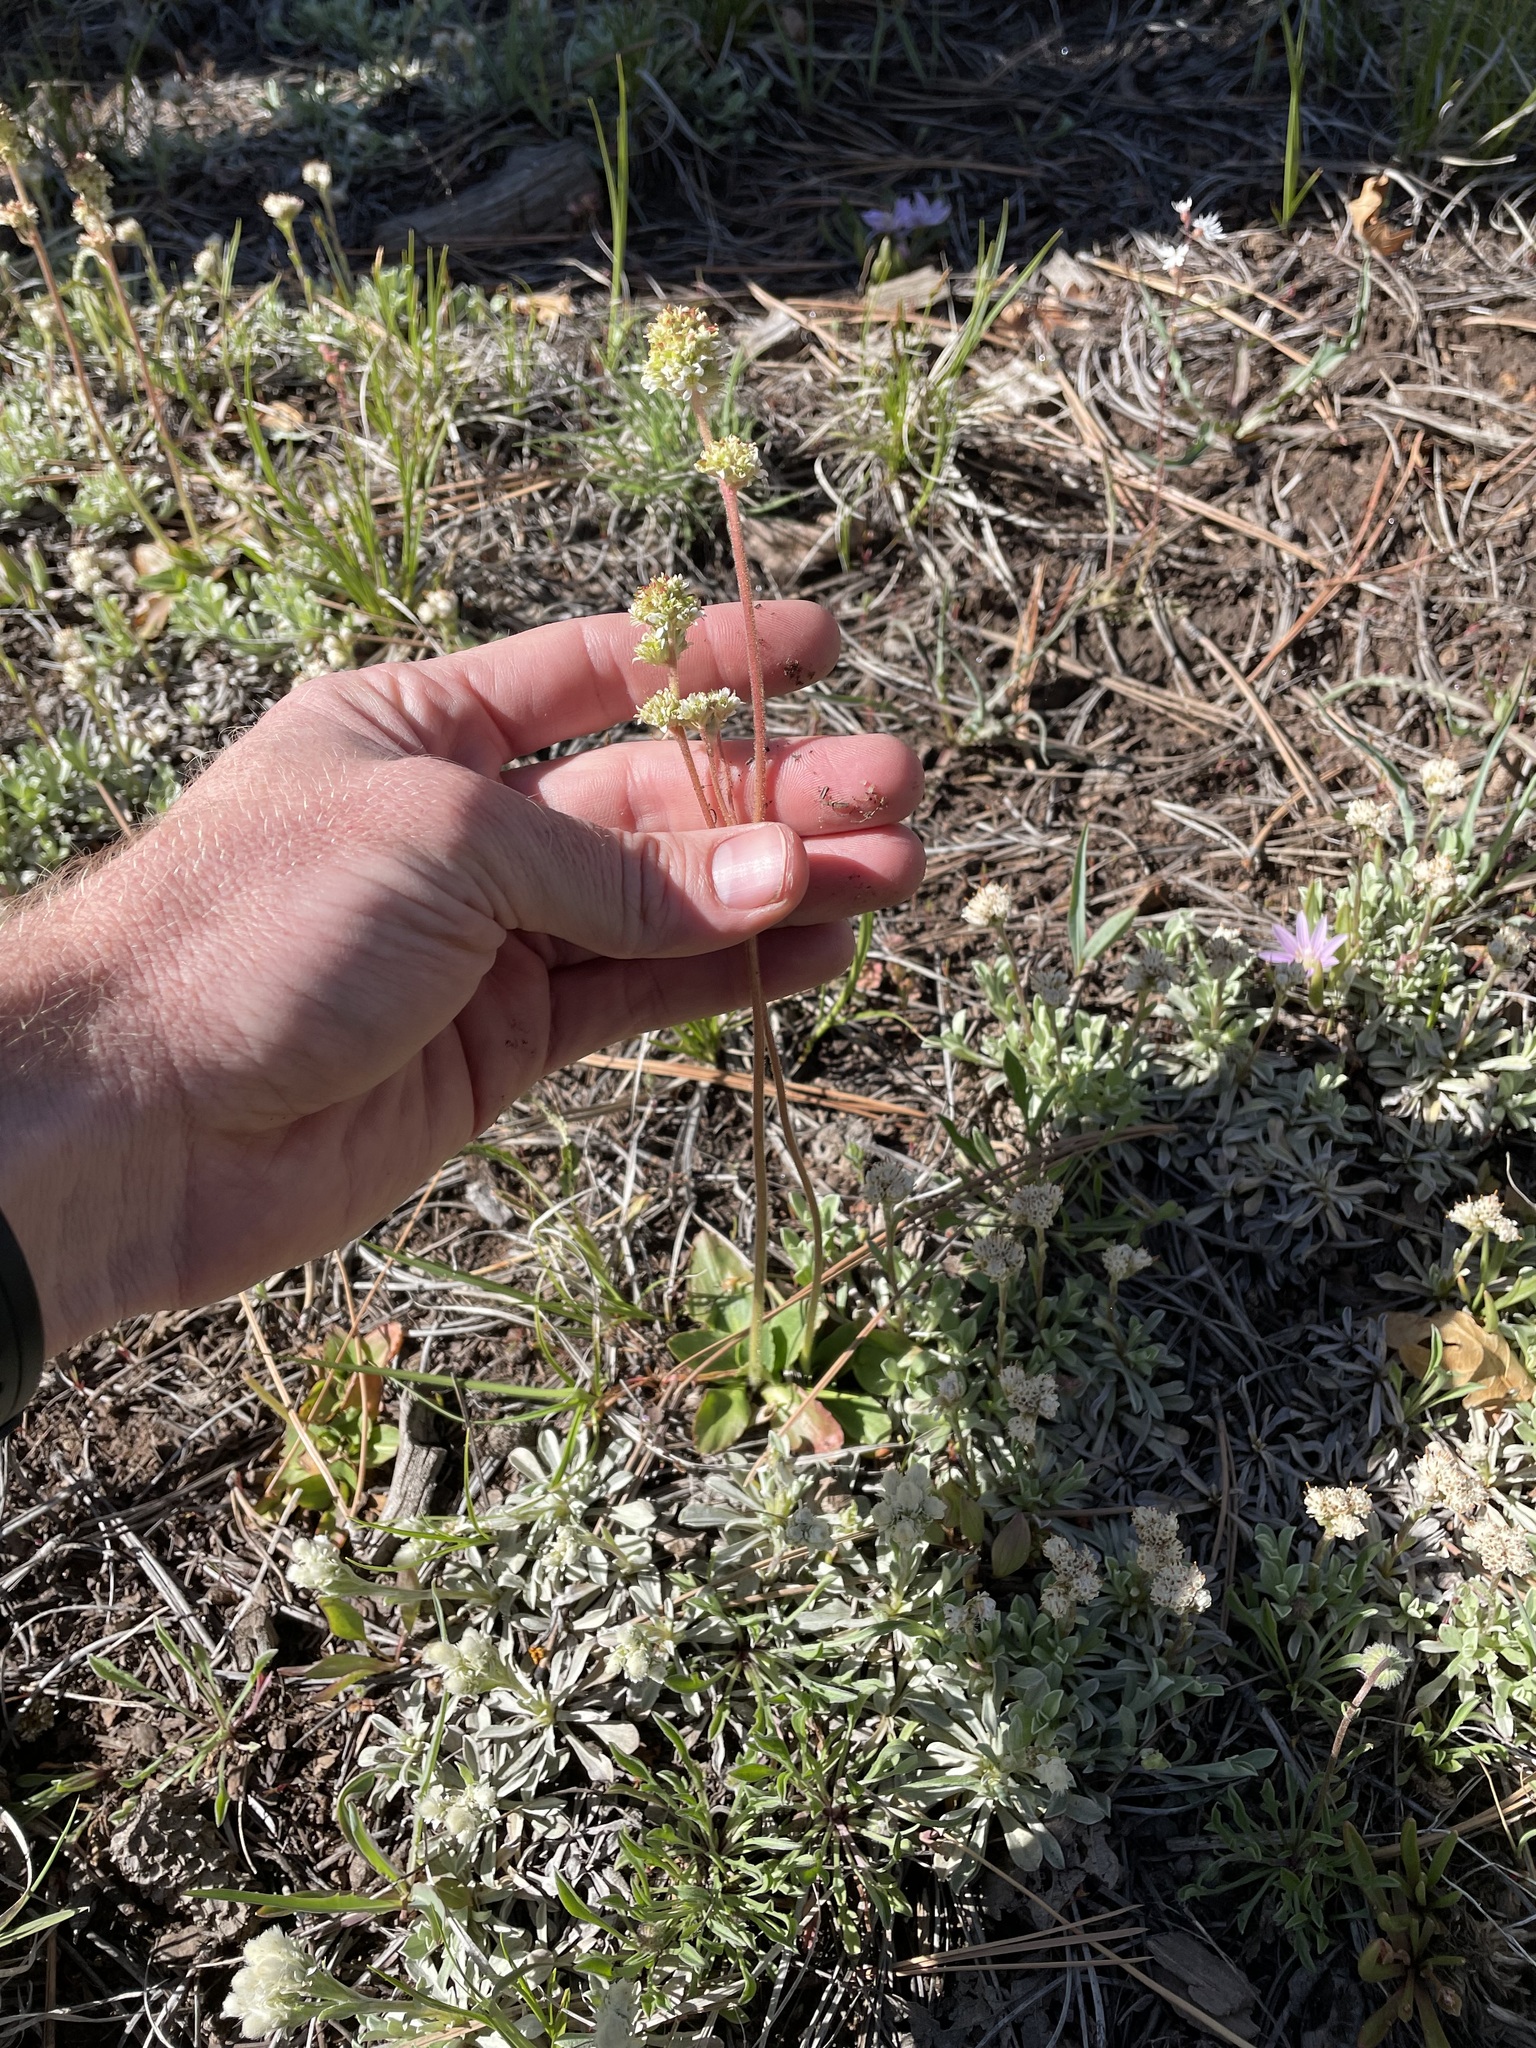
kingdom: Plantae
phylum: Tracheophyta
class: Magnoliopsida
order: Saxifragales
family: Saxifragaceae
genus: Micranthes
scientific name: Micranthes rhomboidea
